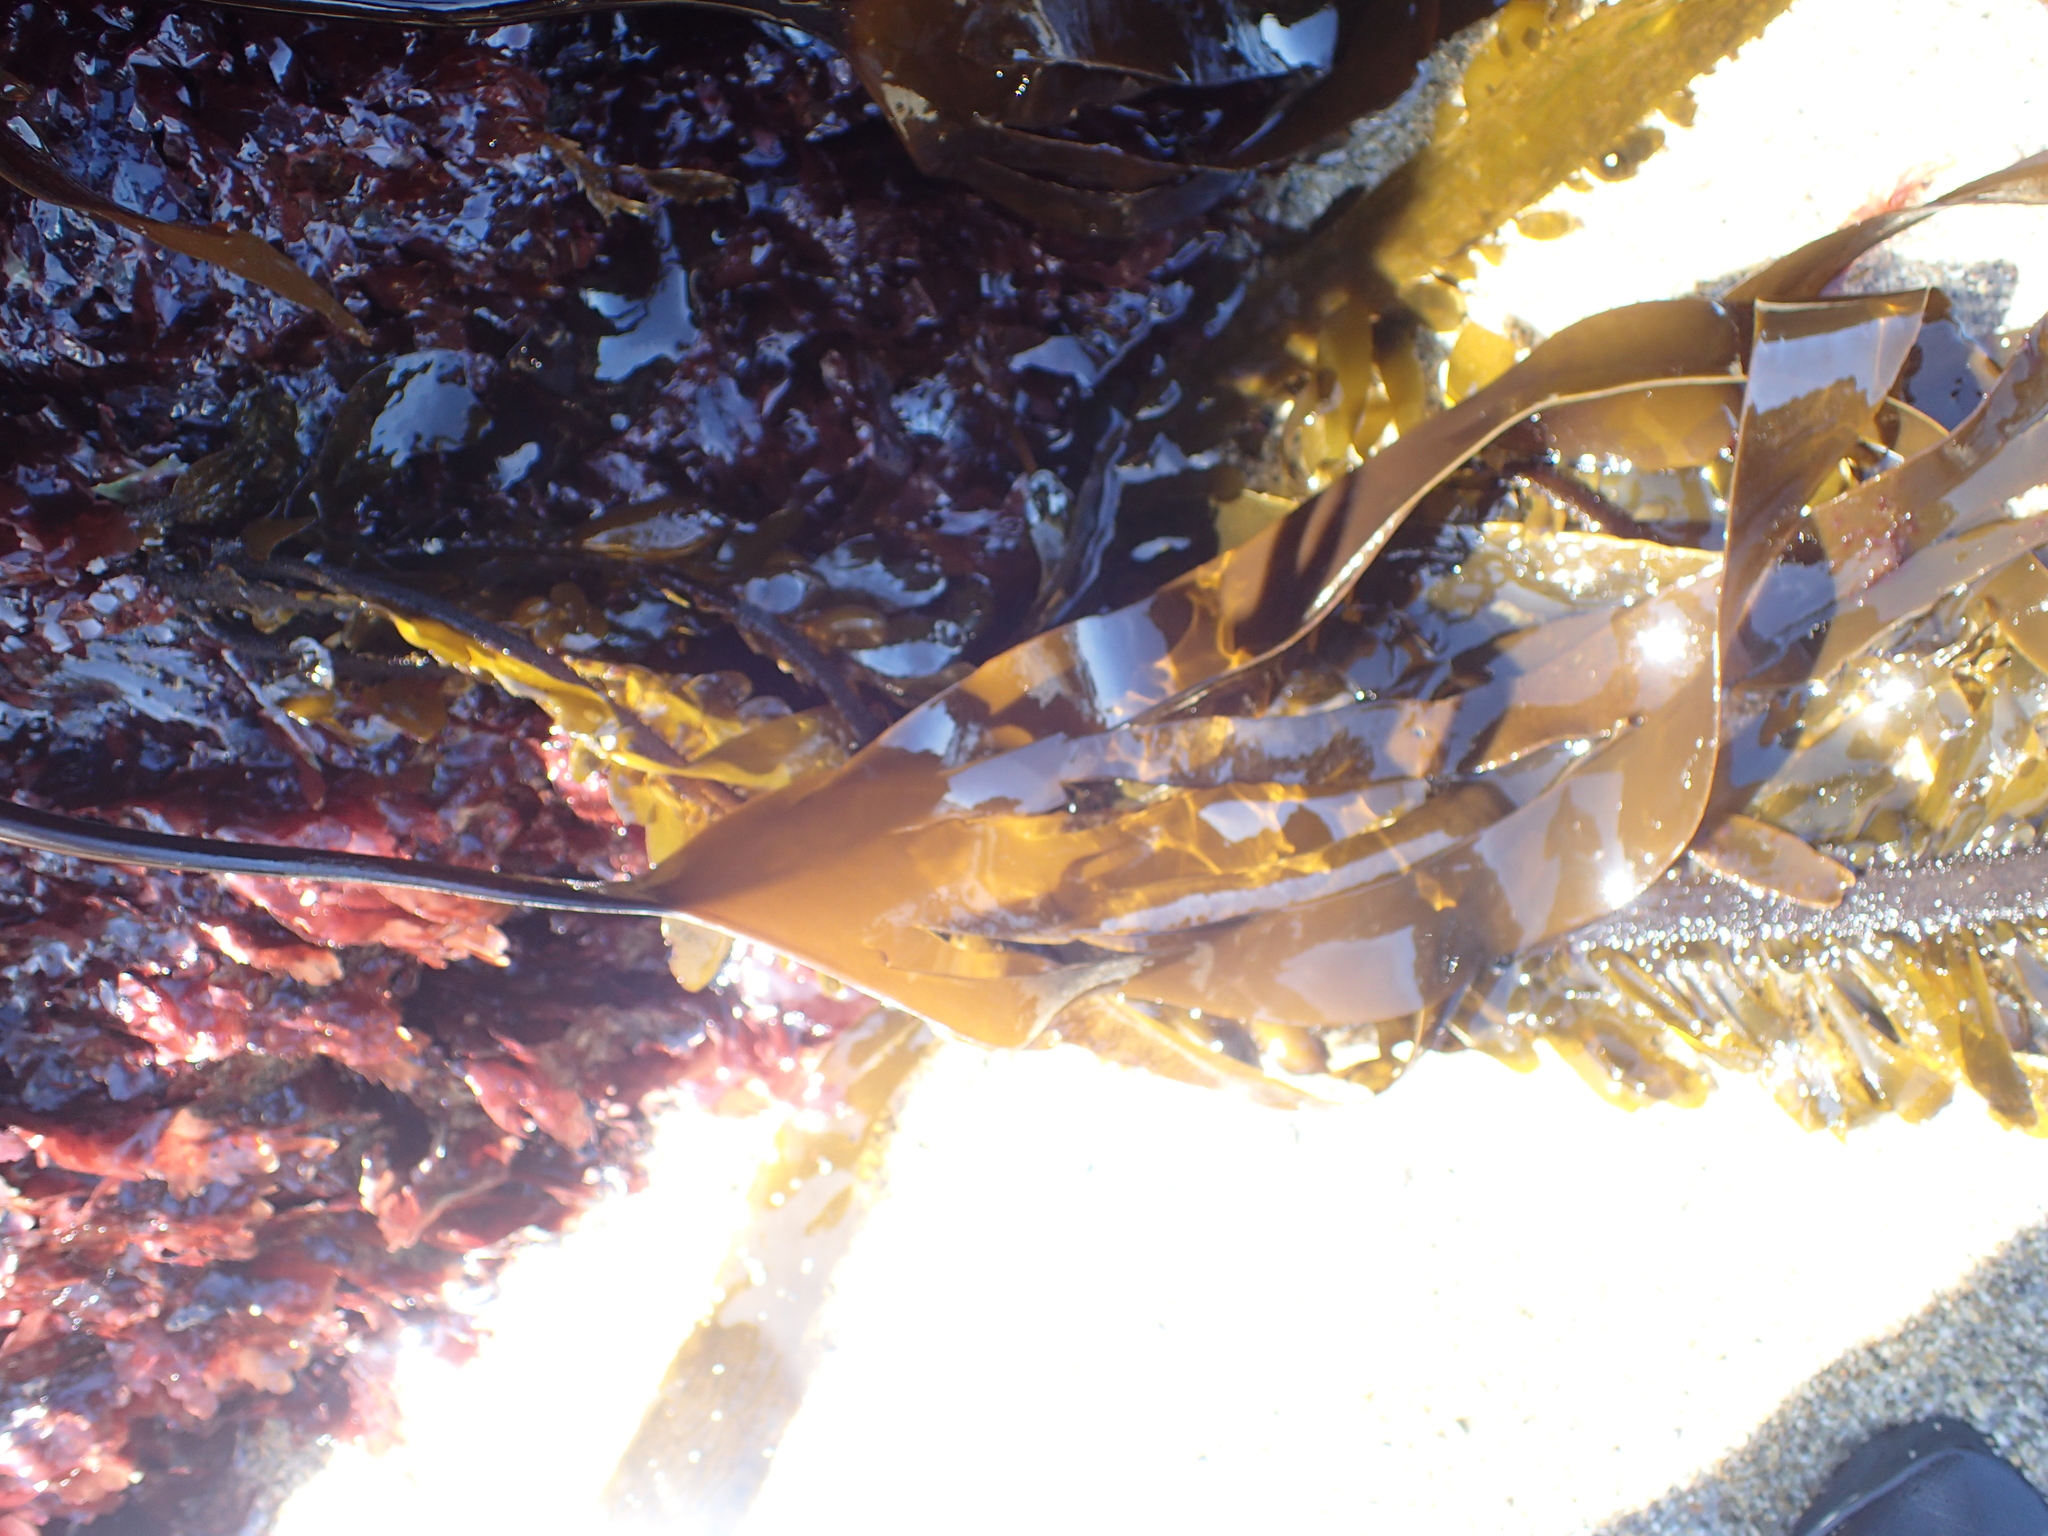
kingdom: Chromista
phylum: Ochrophyta
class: Phaeophyceae
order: Laminariales
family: Laminariaceae
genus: Laminaria
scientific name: Laminaria setchellii
